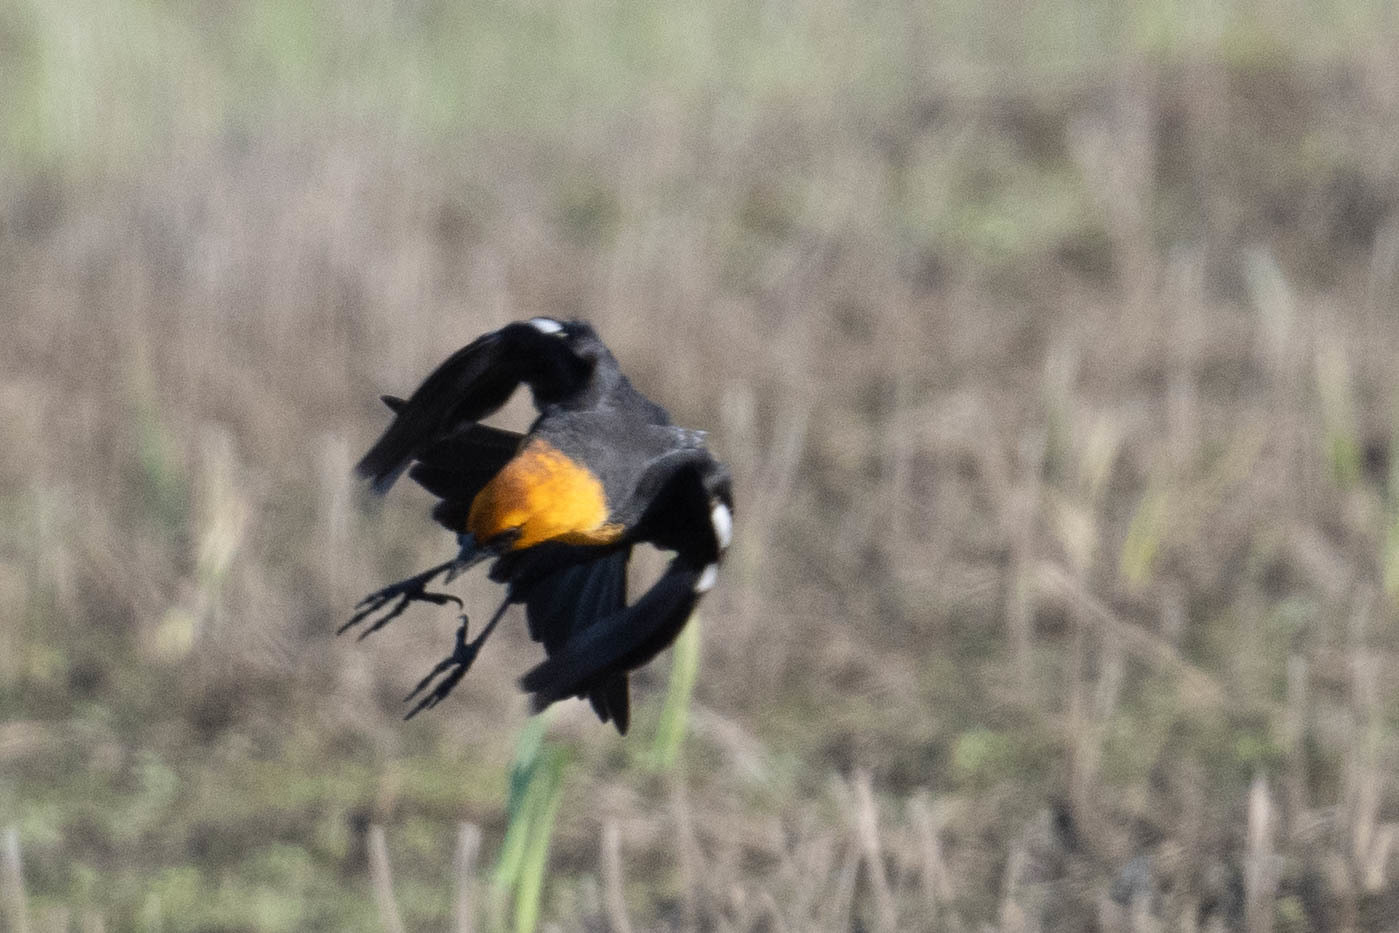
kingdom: Animalia
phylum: Chordata
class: Aves
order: Passeriformes
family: Icteridae
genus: Xanthocephalus
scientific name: Xanthocephalus xanthocephalus
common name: Yellow-headed blackbird
